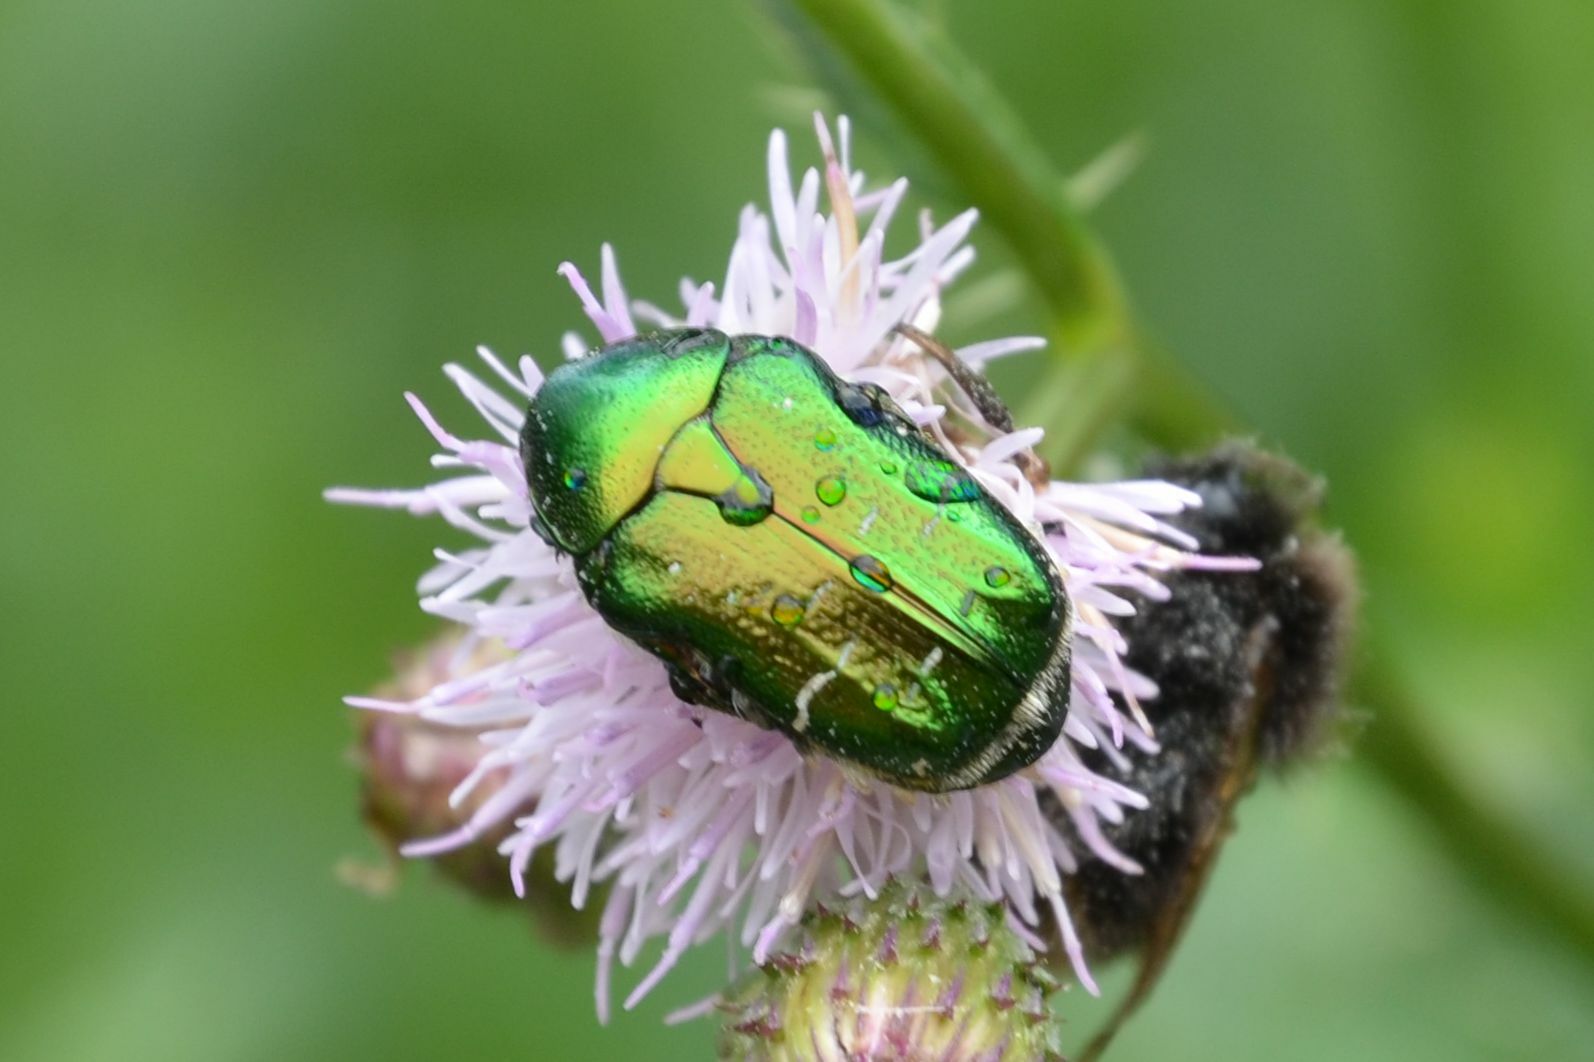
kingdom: Animalia
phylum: Arthropoda
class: Insecta
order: Coleoptera
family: Scarabaeidae
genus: Cetonia
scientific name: Cetonia aurata
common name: Rose chafer
